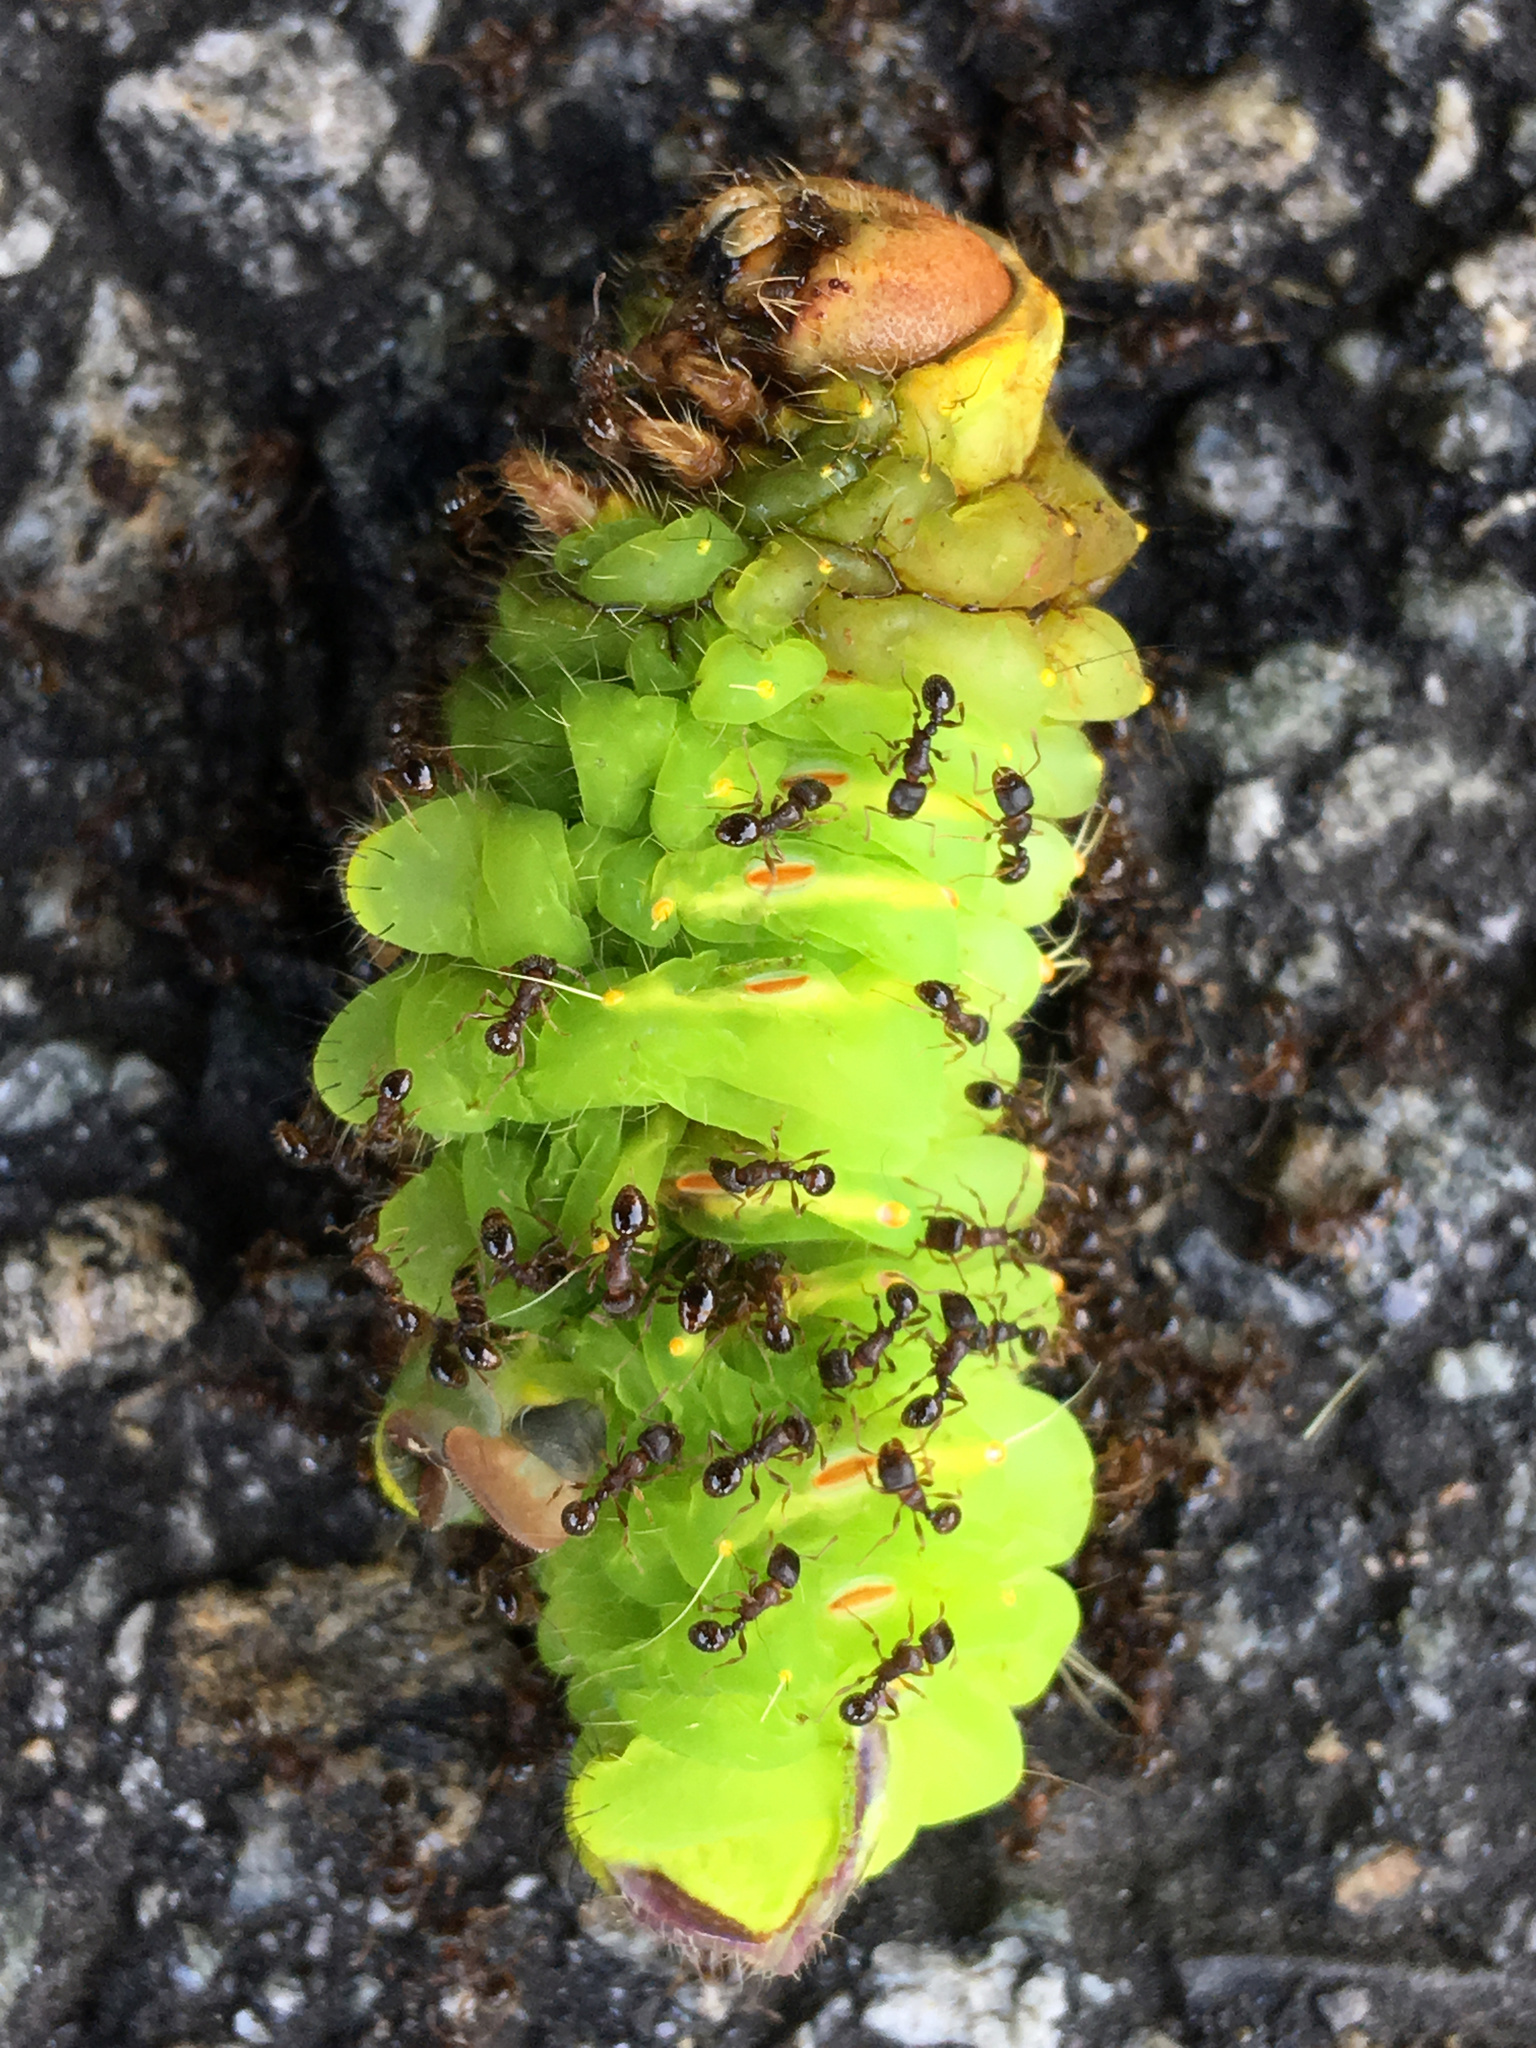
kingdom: Animalia
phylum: Arthropoda
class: Insecta
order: Lepidoptera
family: Saturniidae
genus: Antheraea
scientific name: Antheraea polyphemus
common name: Polyphemus moth
